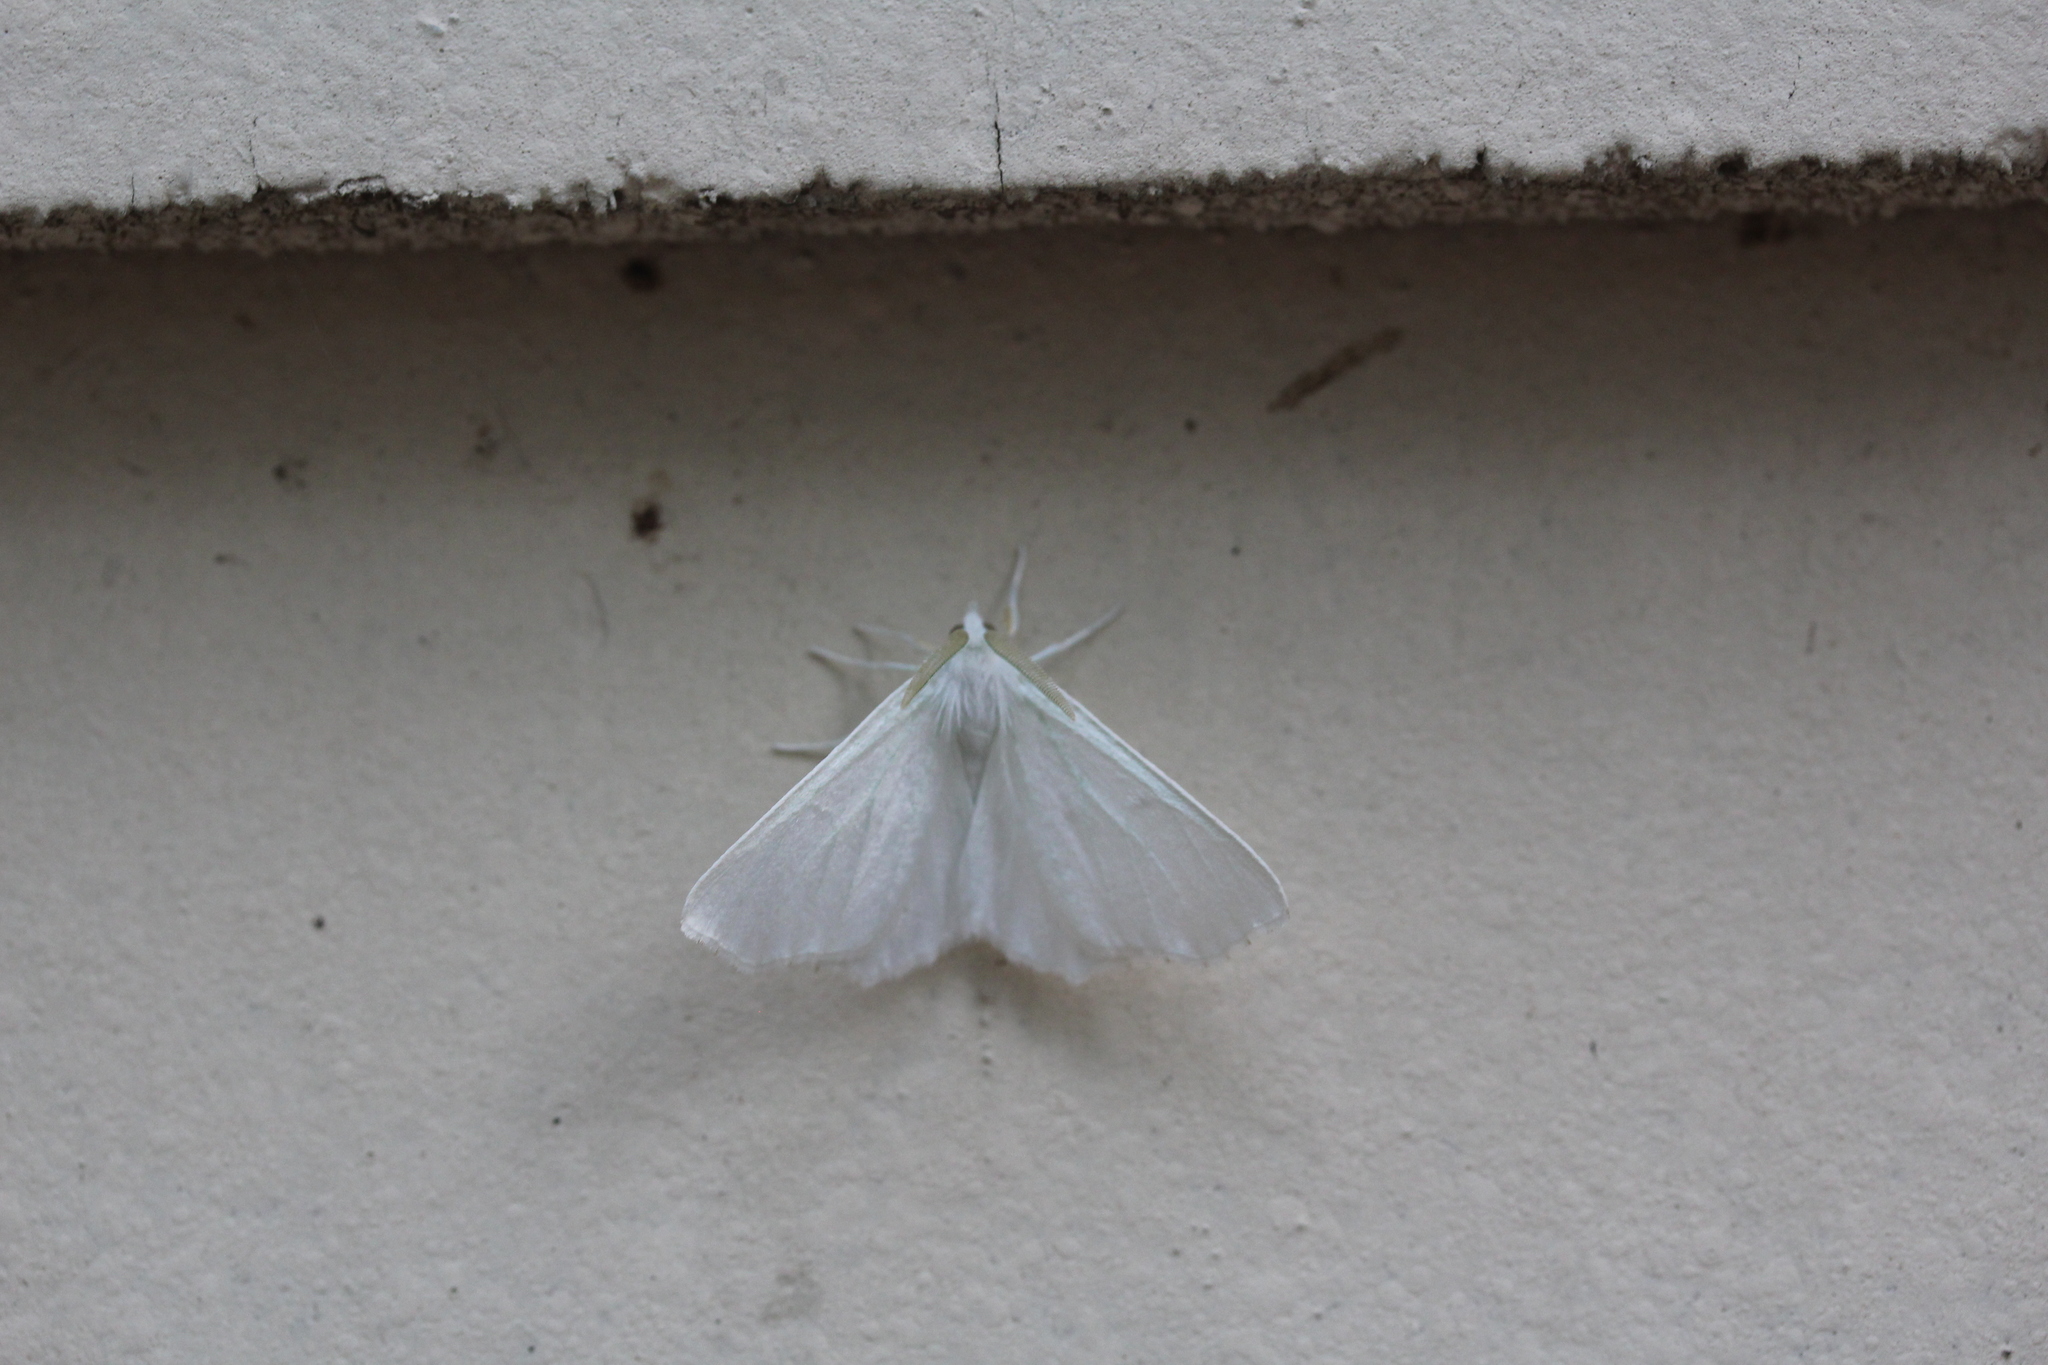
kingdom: Animalia
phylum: Arthropoda
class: Insecta
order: Lepidoptera
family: Geometridae
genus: Ennomos
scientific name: Ennomos subsignaria
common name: Elm spanworm
